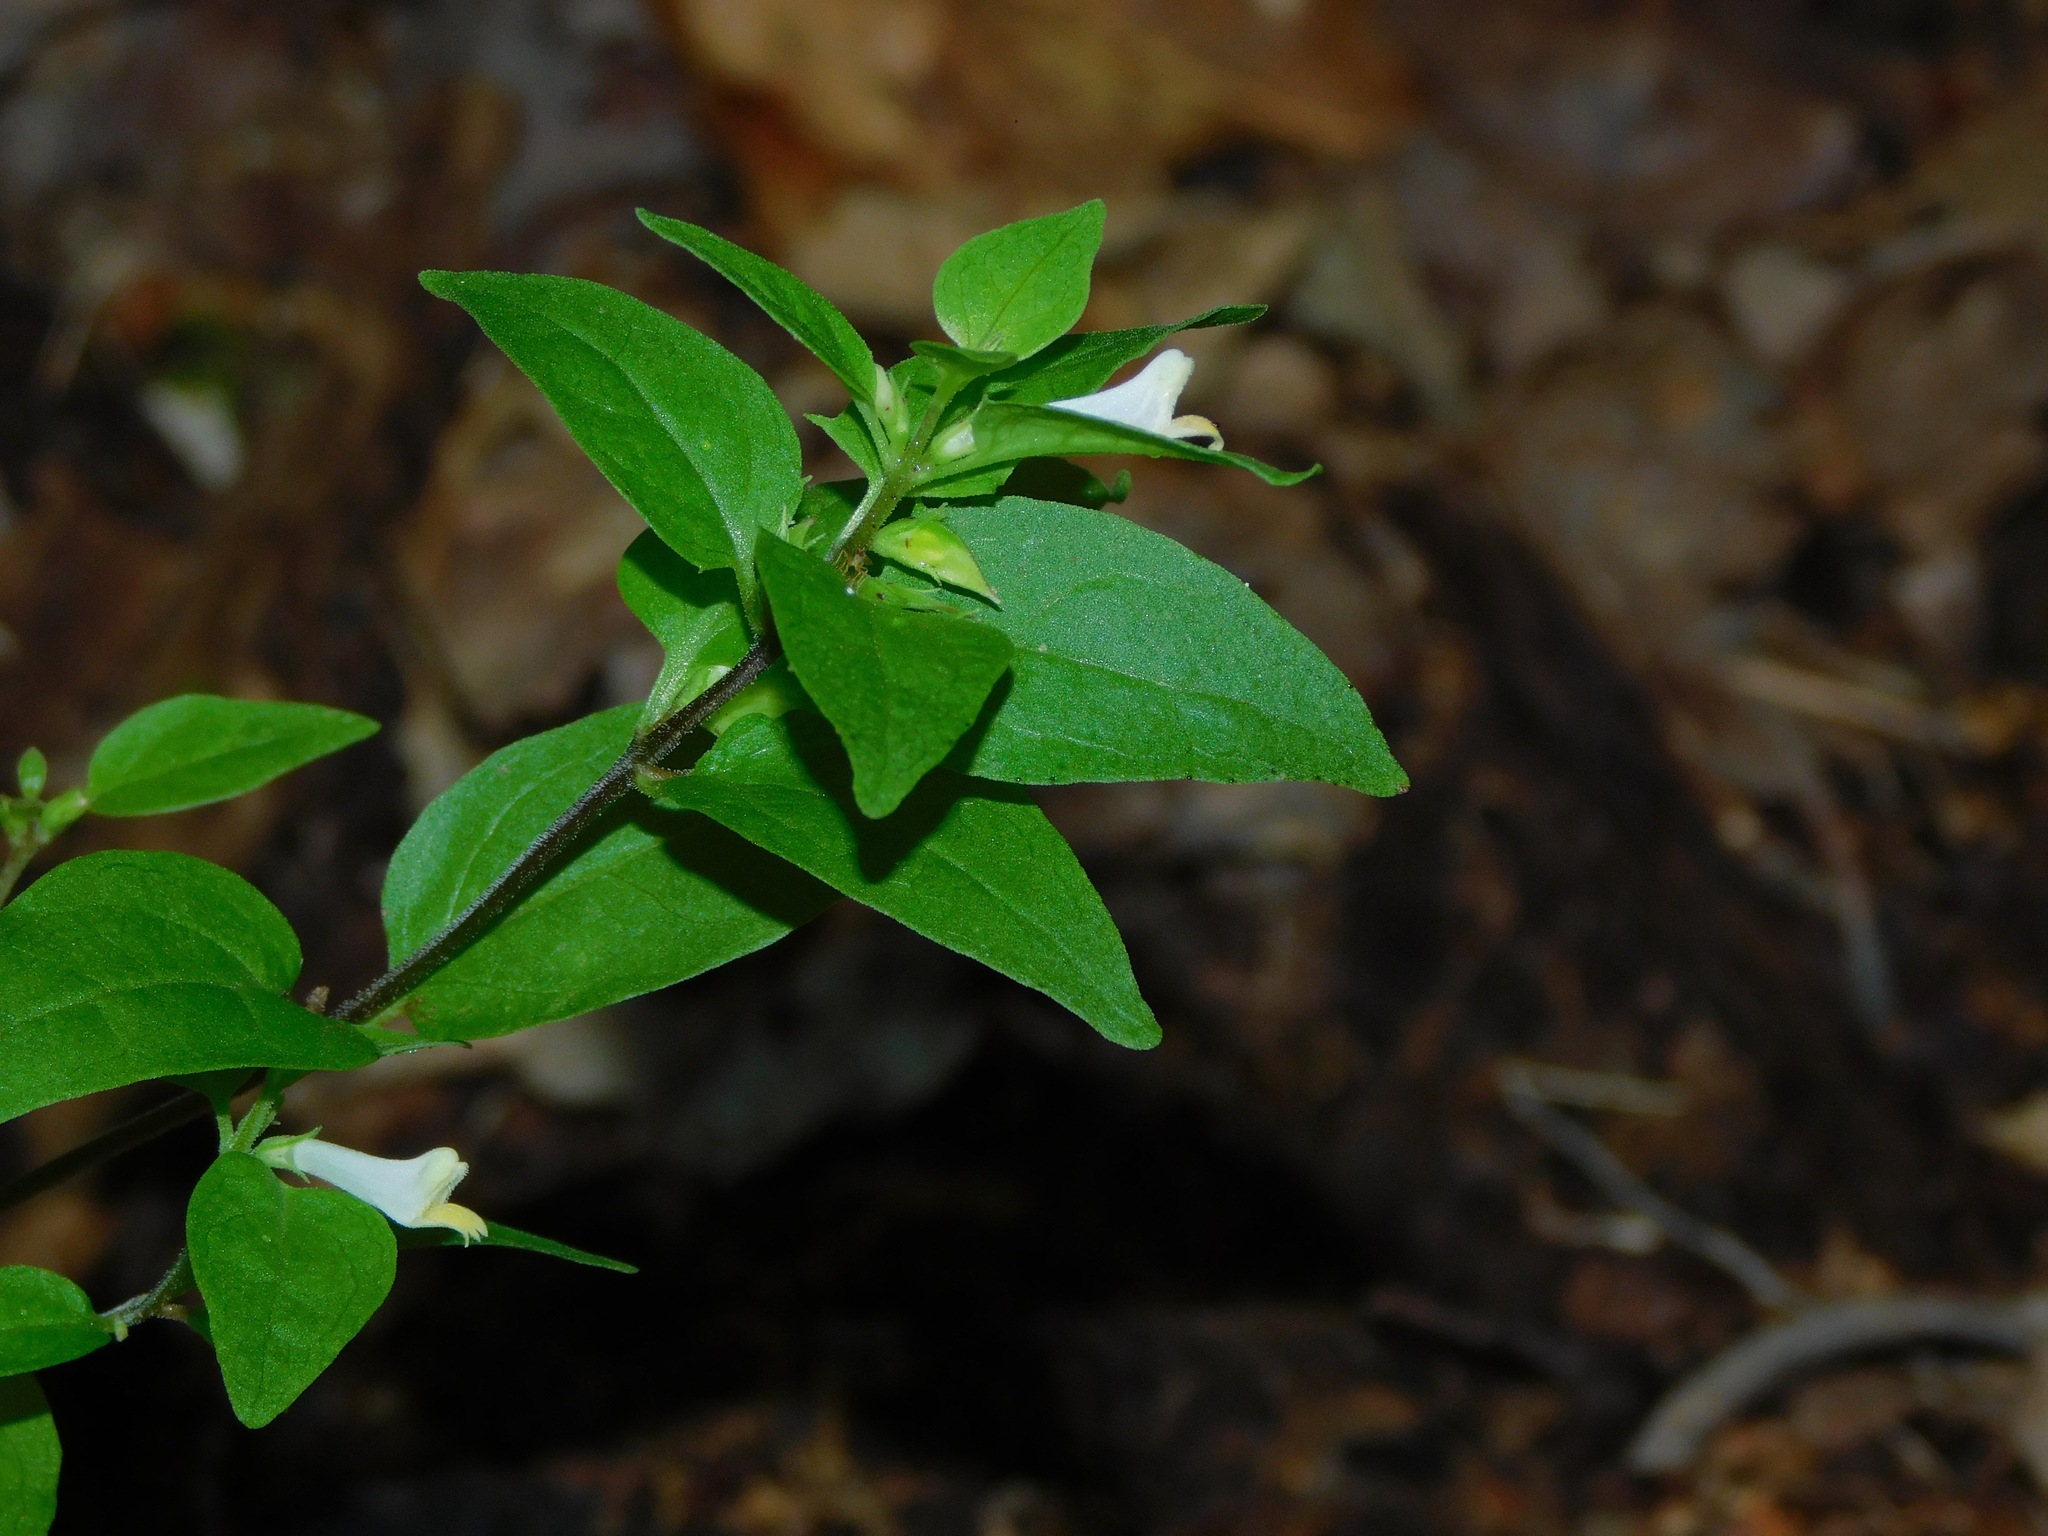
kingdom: Plantae
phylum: Tracheophyta
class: Magnoliopsida
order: Lamiales
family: Orobanchaceae
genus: Melampyrum
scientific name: Melampyrum lineare
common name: American cow-wheat
